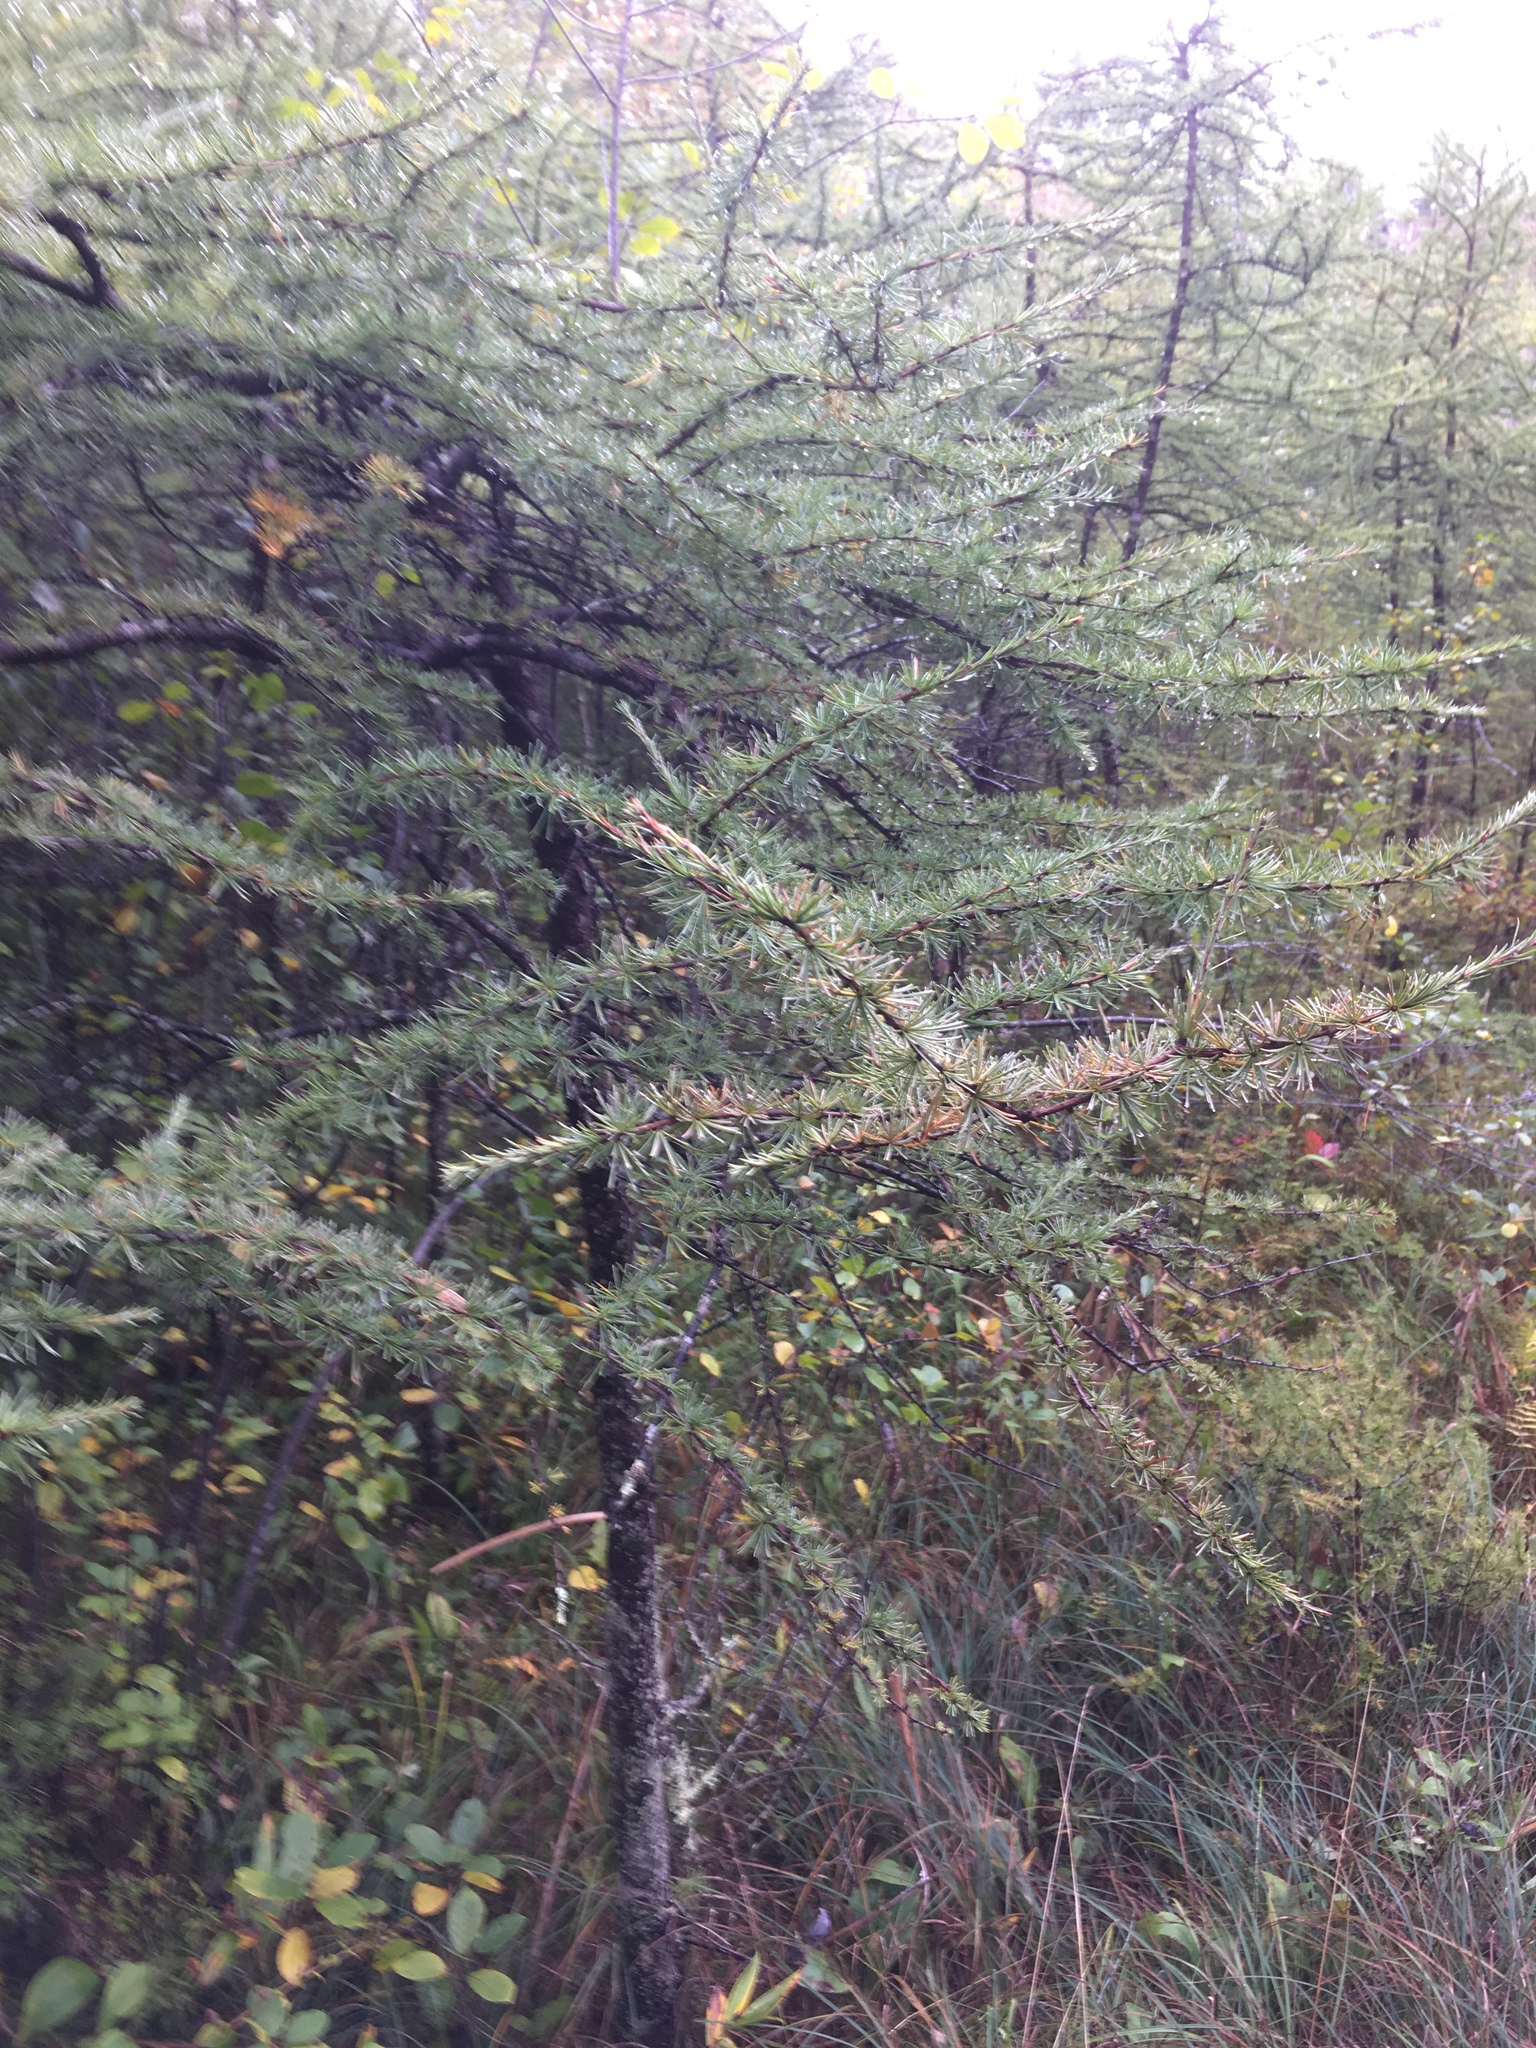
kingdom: Plantae
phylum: Tracheophyta
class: Pinopsida
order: Pinales
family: Pinaceae
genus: Larix
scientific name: Larix laricina
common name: American larch
